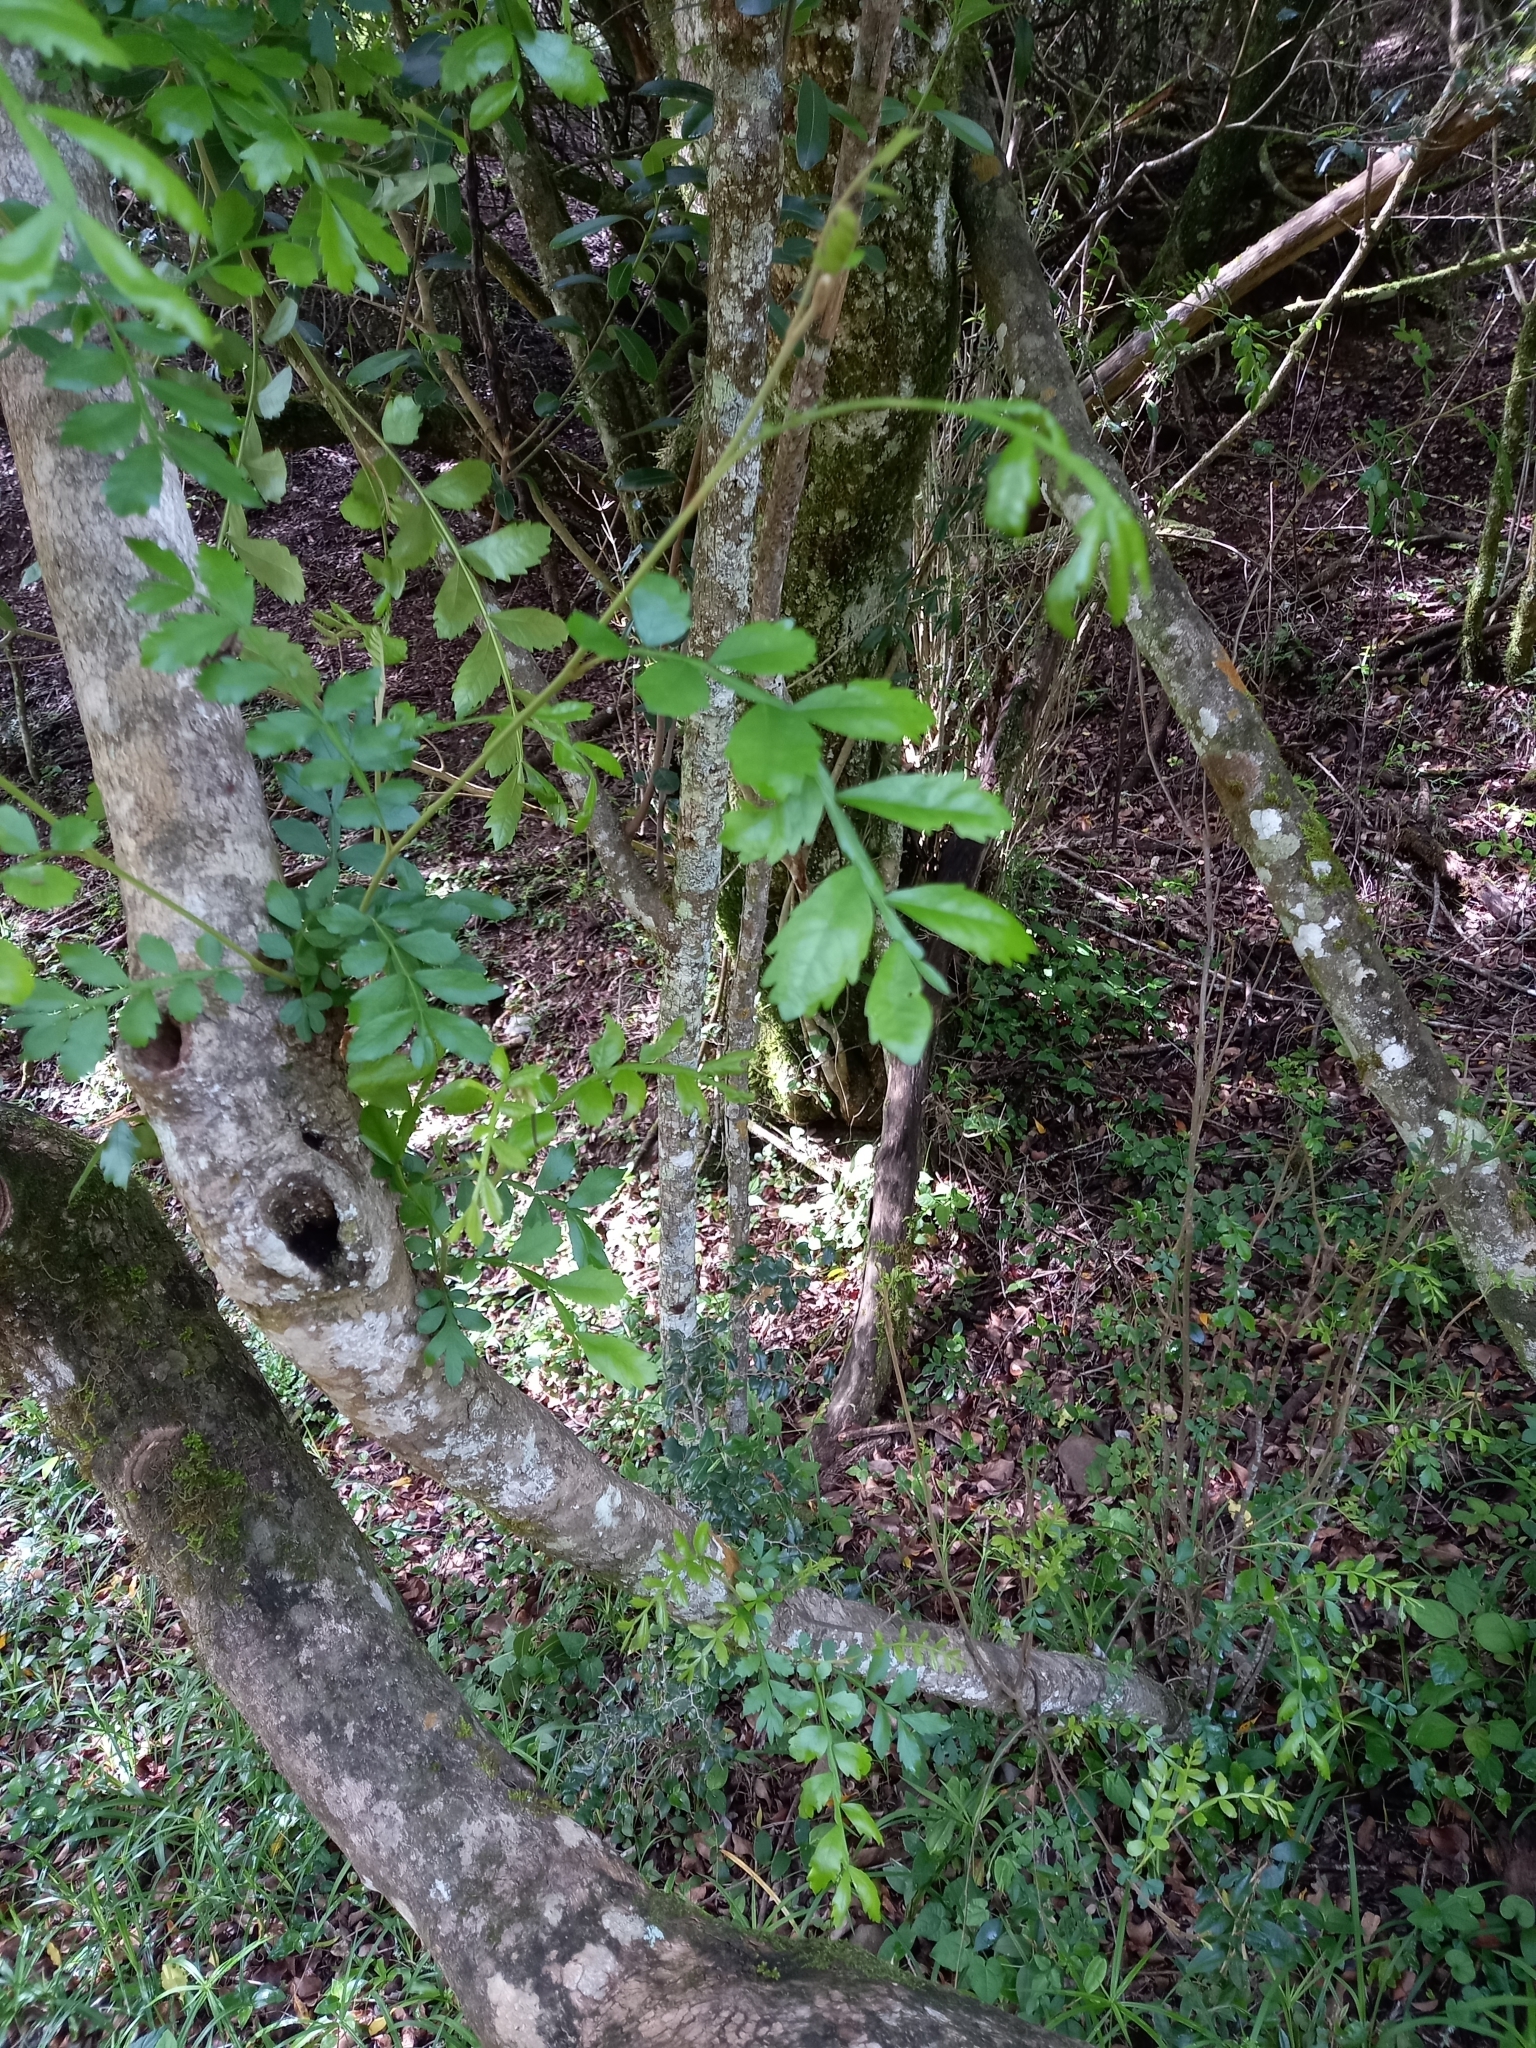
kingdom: Plantae
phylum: Tracheophyta
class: Magnoliopsida
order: Sapindales
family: Sapindaceae
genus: Hippobromus
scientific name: Hippobromus pauciflorus
